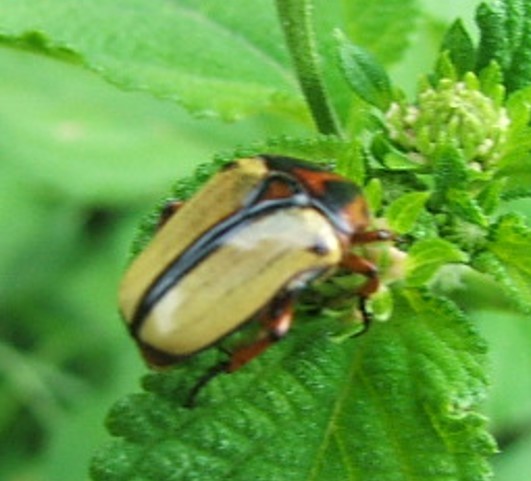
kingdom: Animalia
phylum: Arthropoda
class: Insecta
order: Coleoptera
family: Scarabaeidae
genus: Anisorrhina
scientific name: Anisorrhina umbonata
